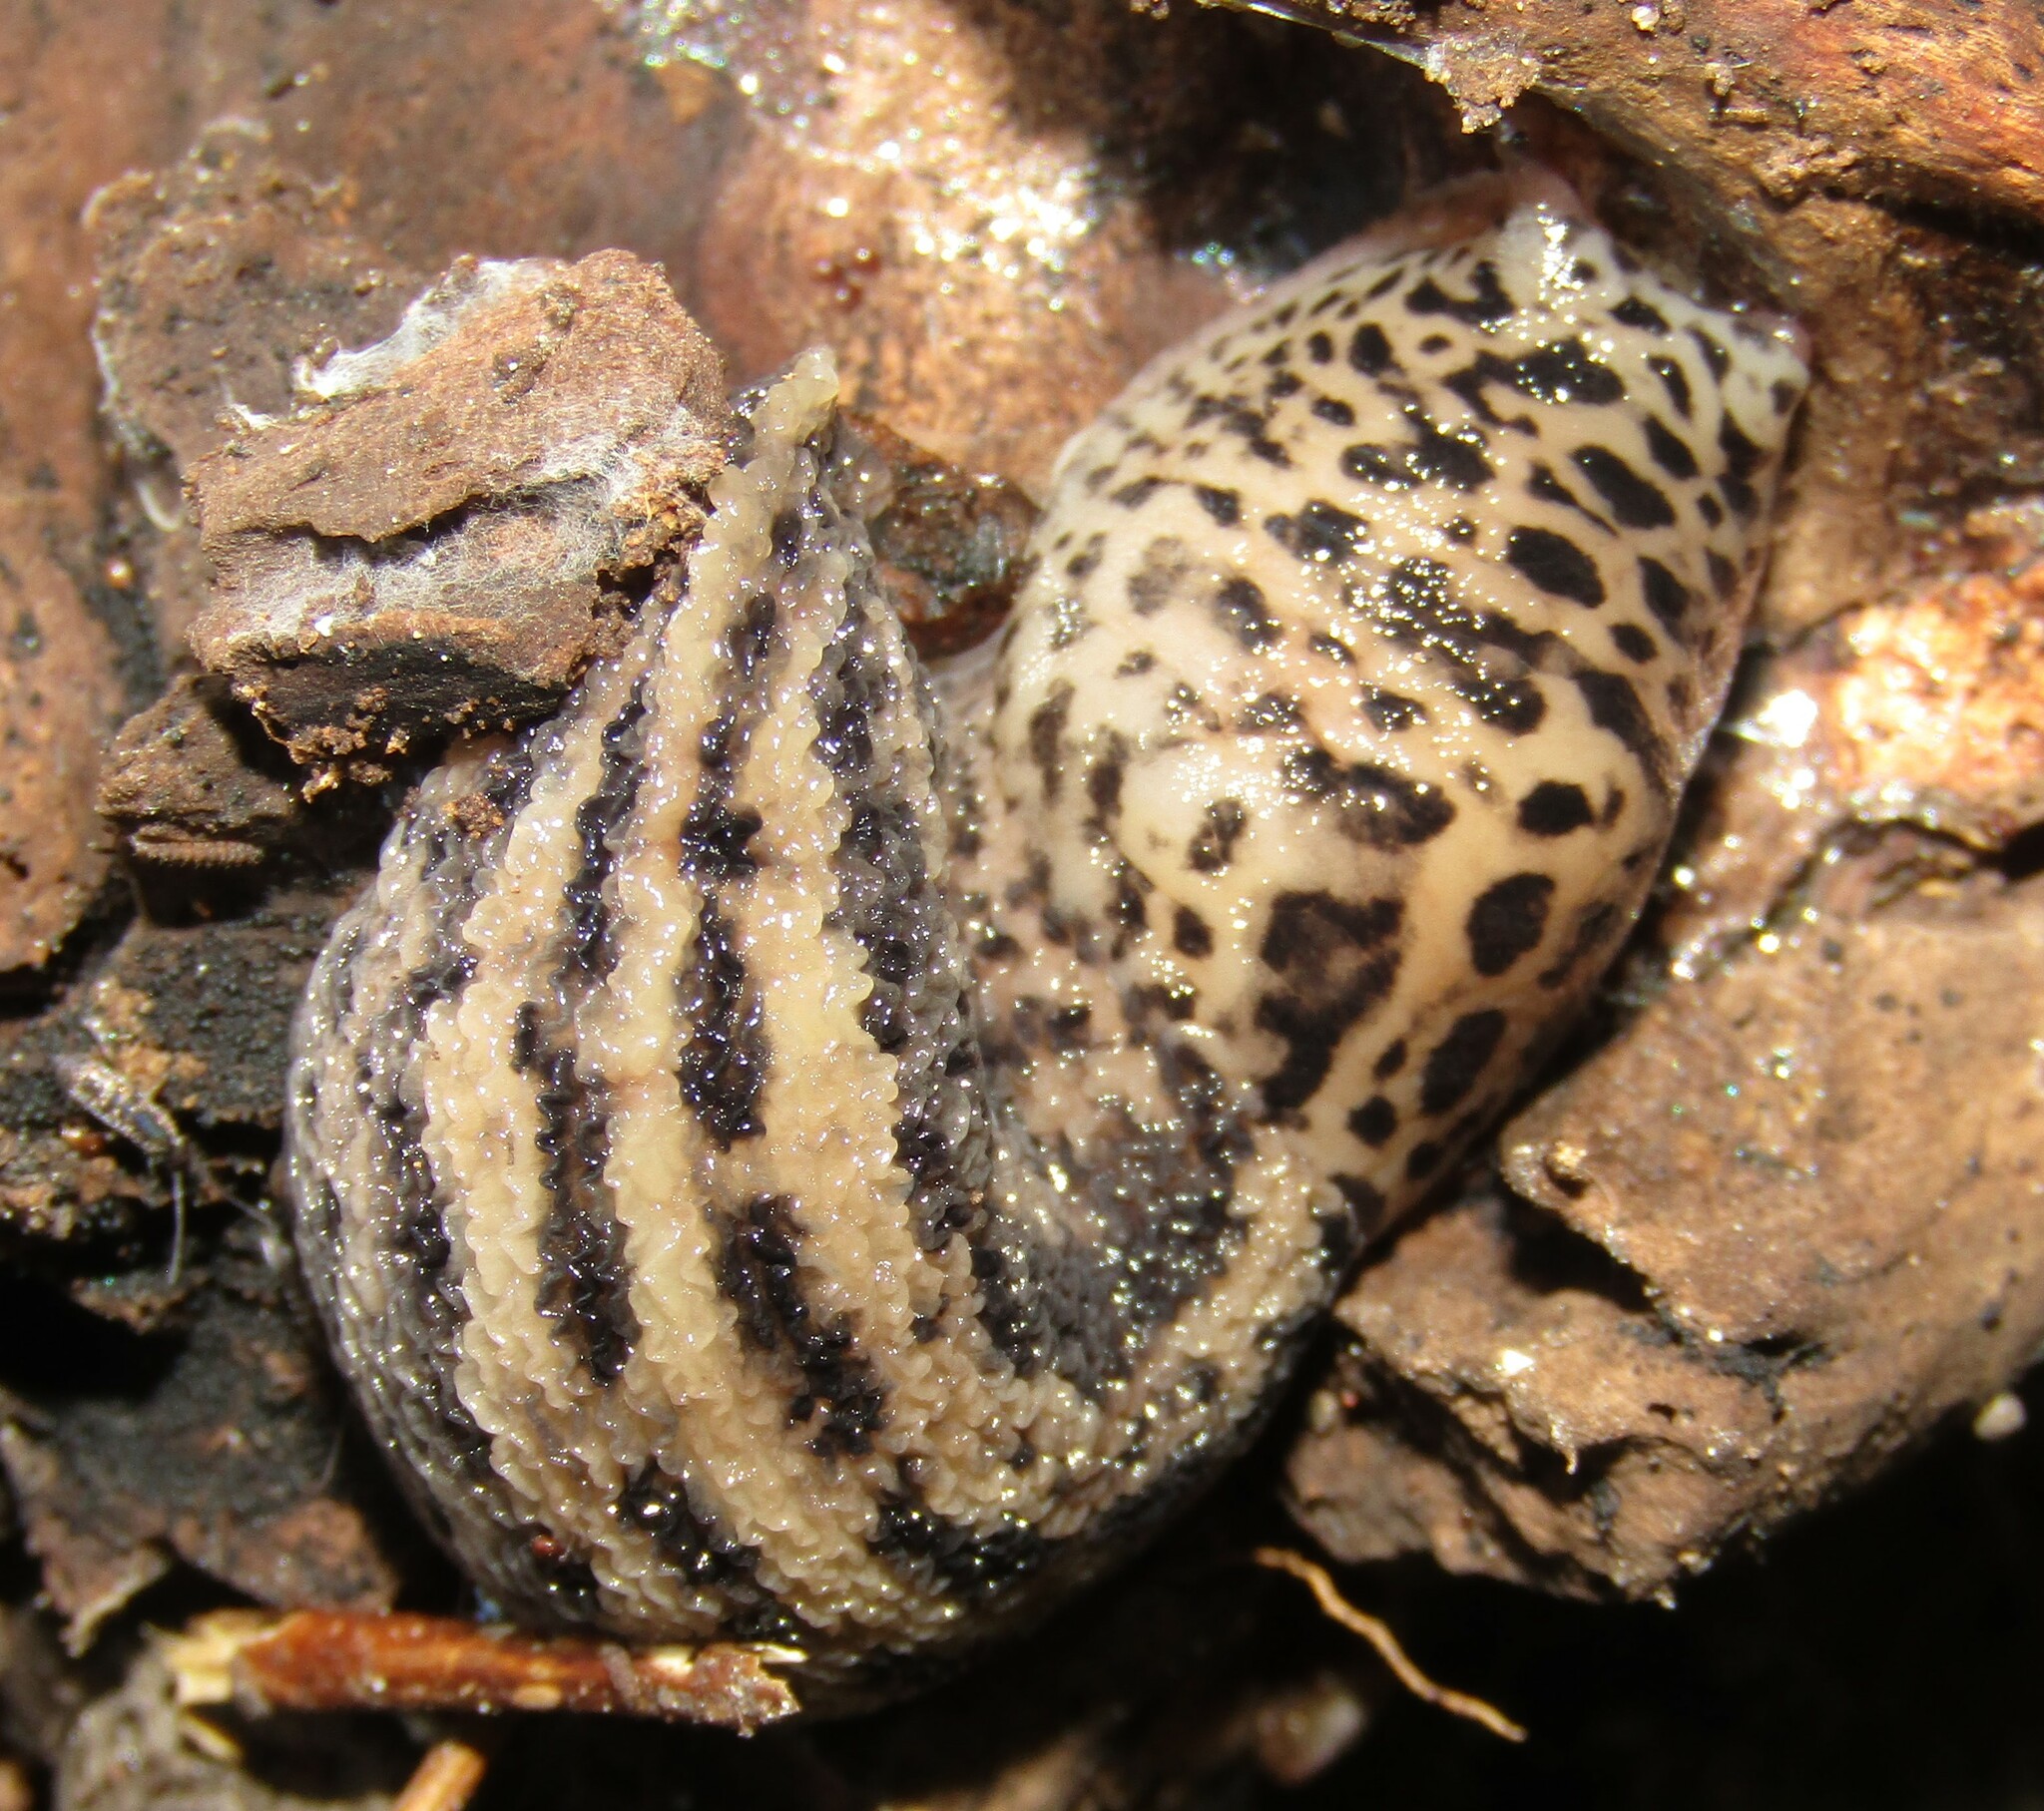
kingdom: Animalia
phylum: Mollusca
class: Gastropoda
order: Stylommatophora
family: Limacidae
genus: Limax
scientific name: Limax maximus
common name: Great grey slug
